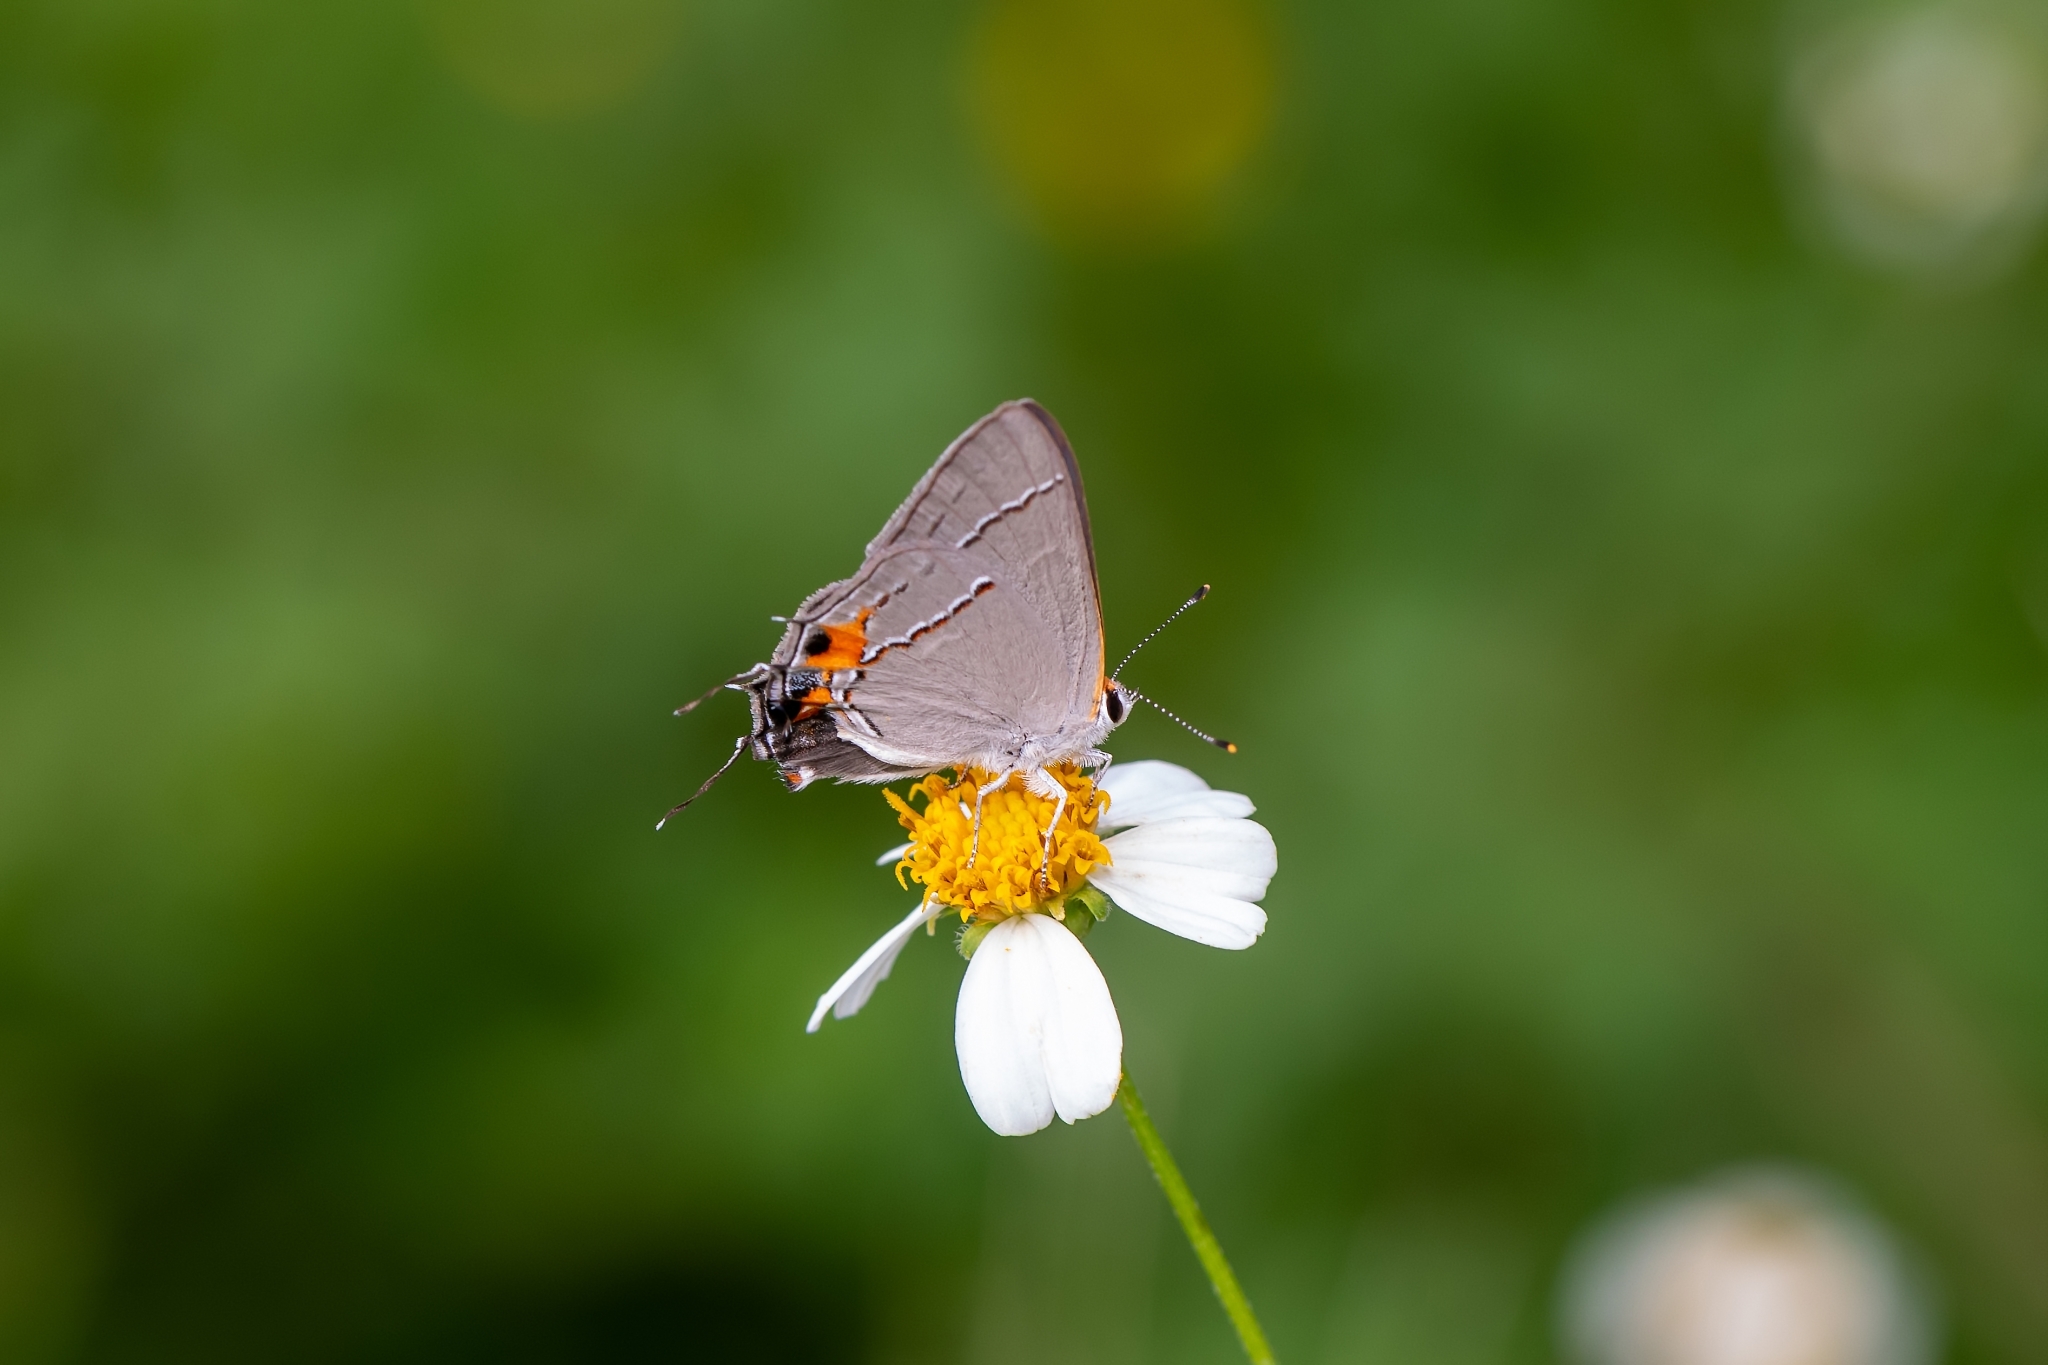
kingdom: Animalia
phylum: Arthropoda
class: Insecta
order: Lepidoptera
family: Lycaenidae
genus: Strymon
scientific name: Strymon melinus
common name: Gray hairstreak
